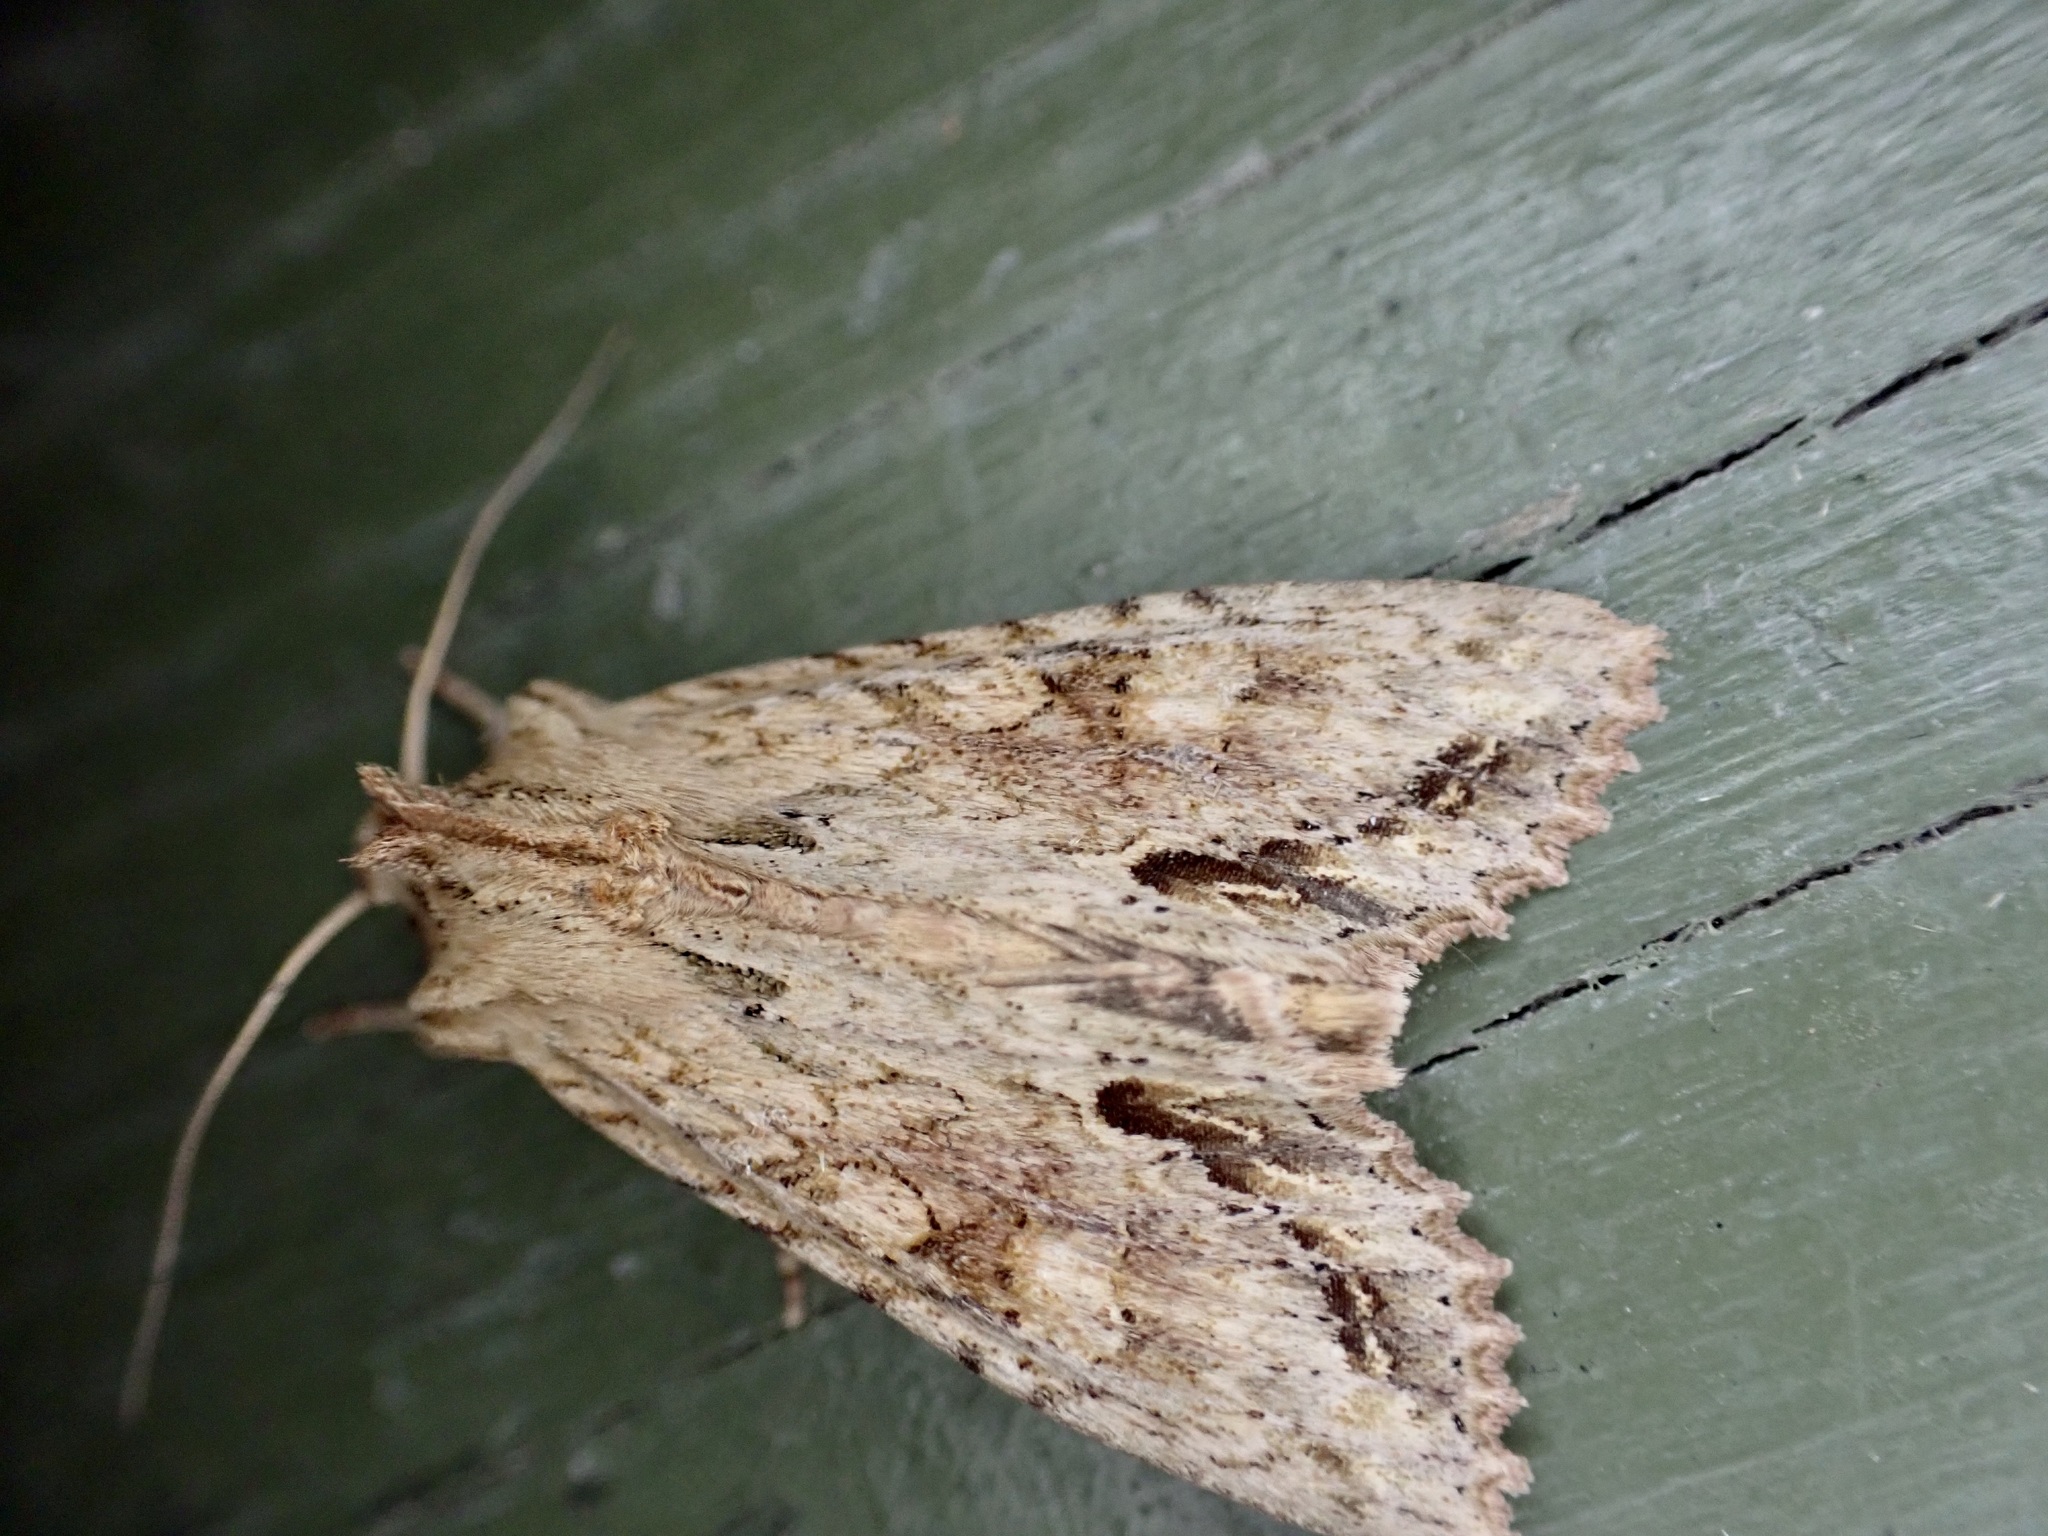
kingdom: Animalia
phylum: Arthropoda
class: Insecta
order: Lepidoptera
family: Noctuidae
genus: Ichneutica
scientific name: Ichneutica mollis
